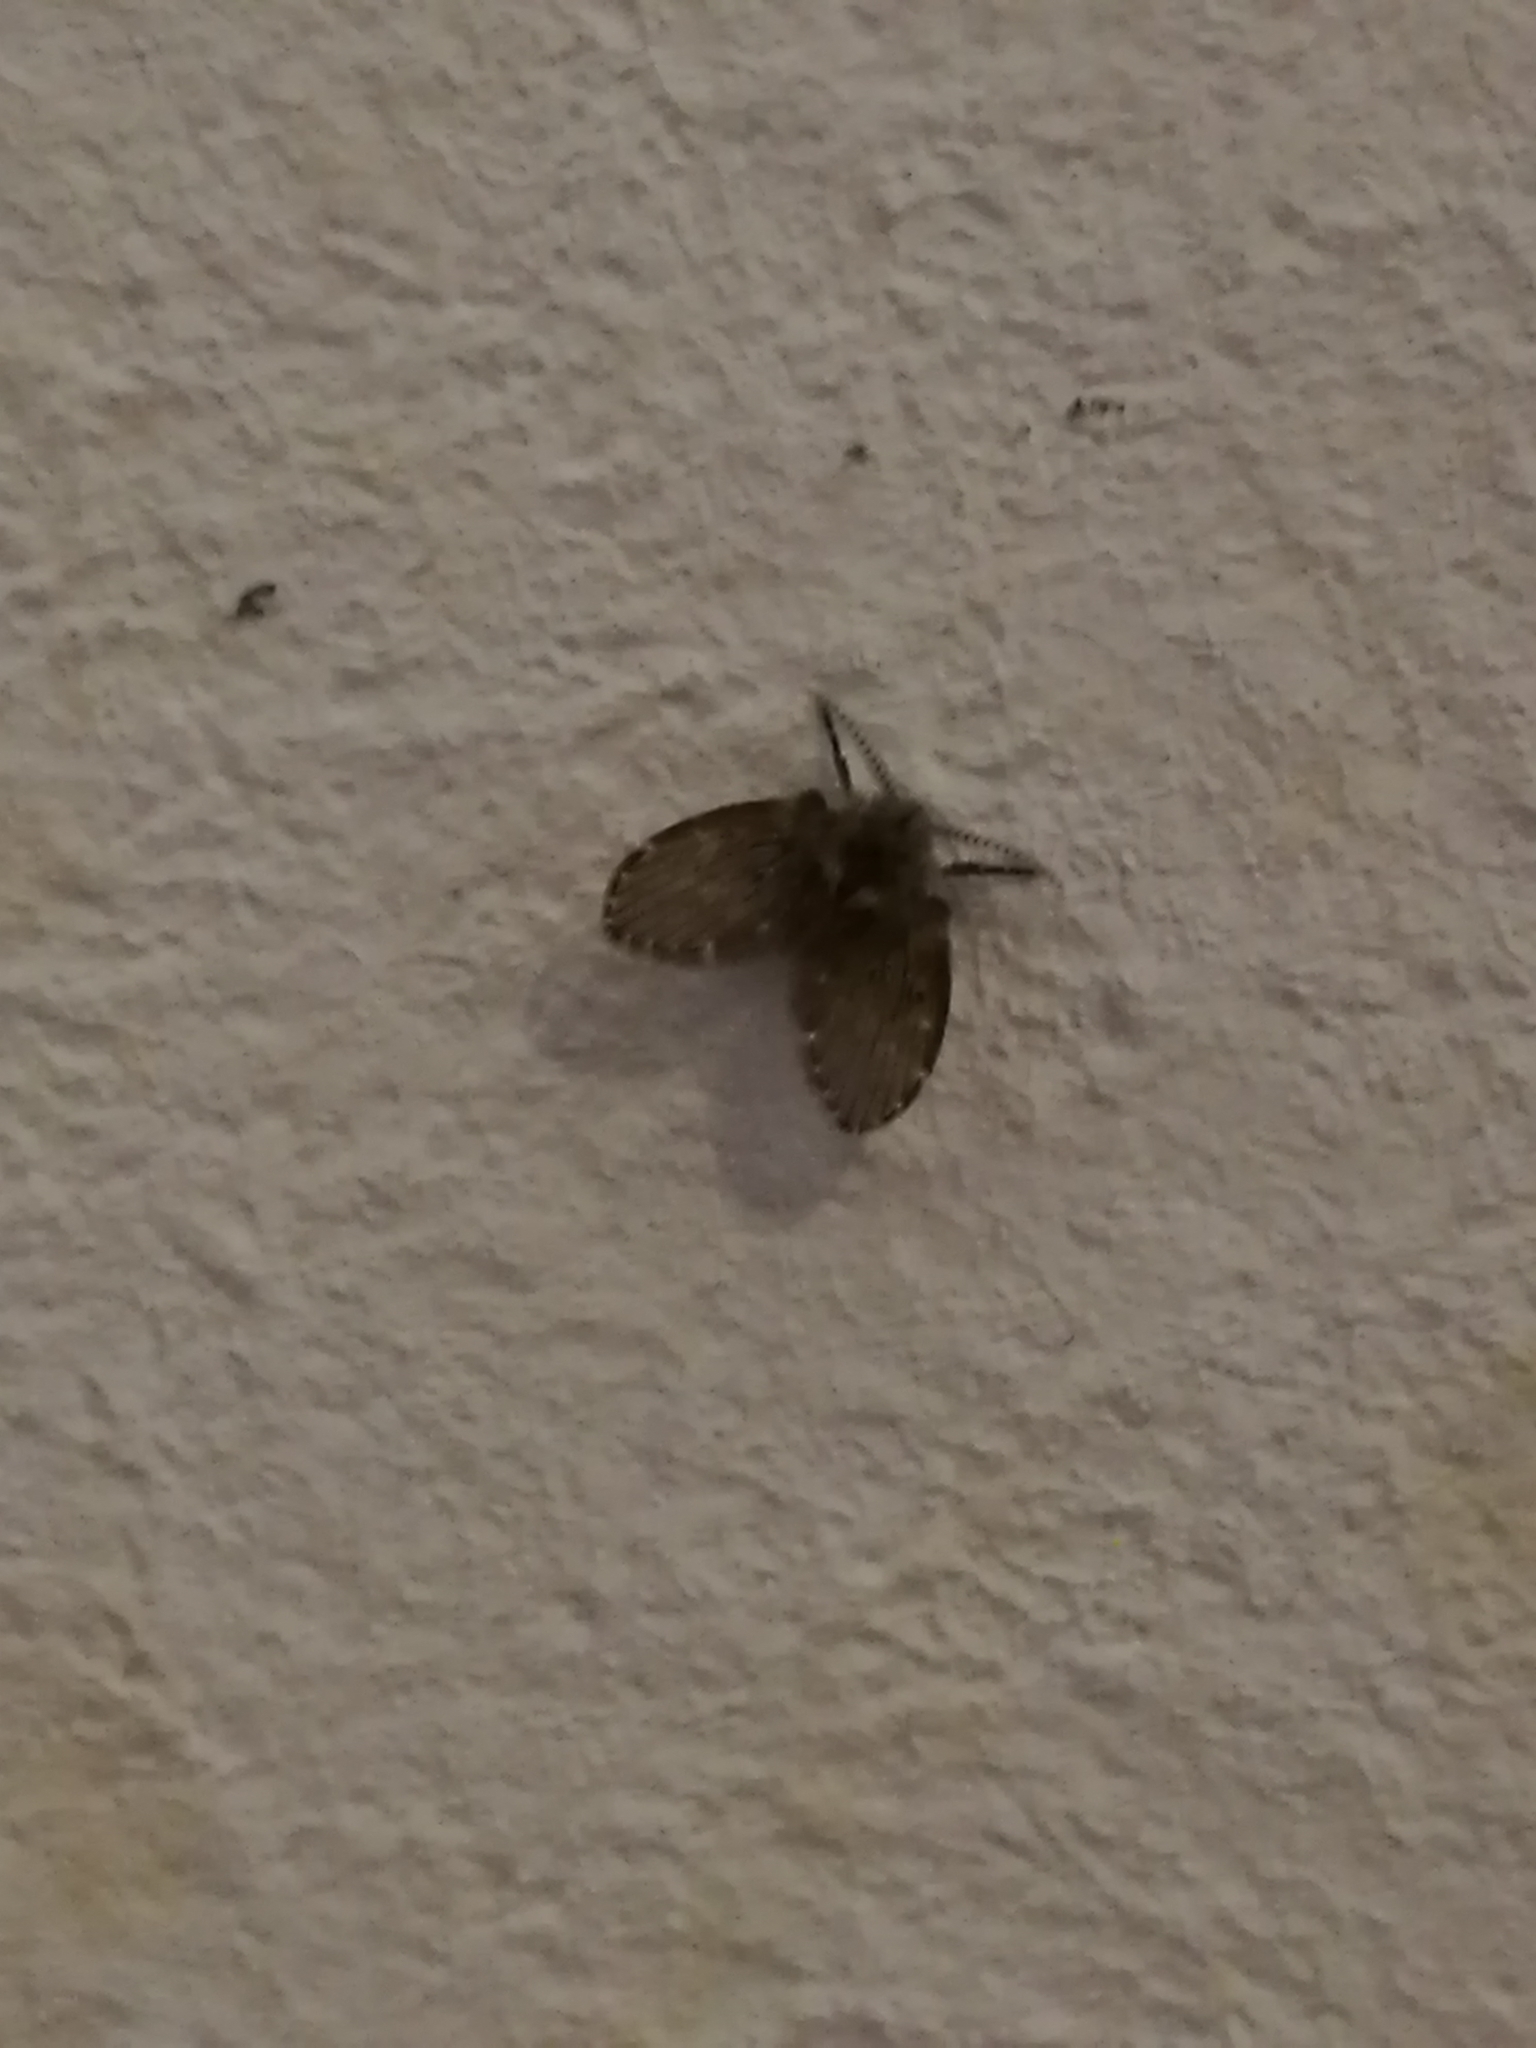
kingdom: Animalia
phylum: Arthropoda
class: Insecta
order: Diptera
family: Psychodidae
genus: Clogmia
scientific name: Clogmia albipunctatus
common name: White-spotted moth fly
